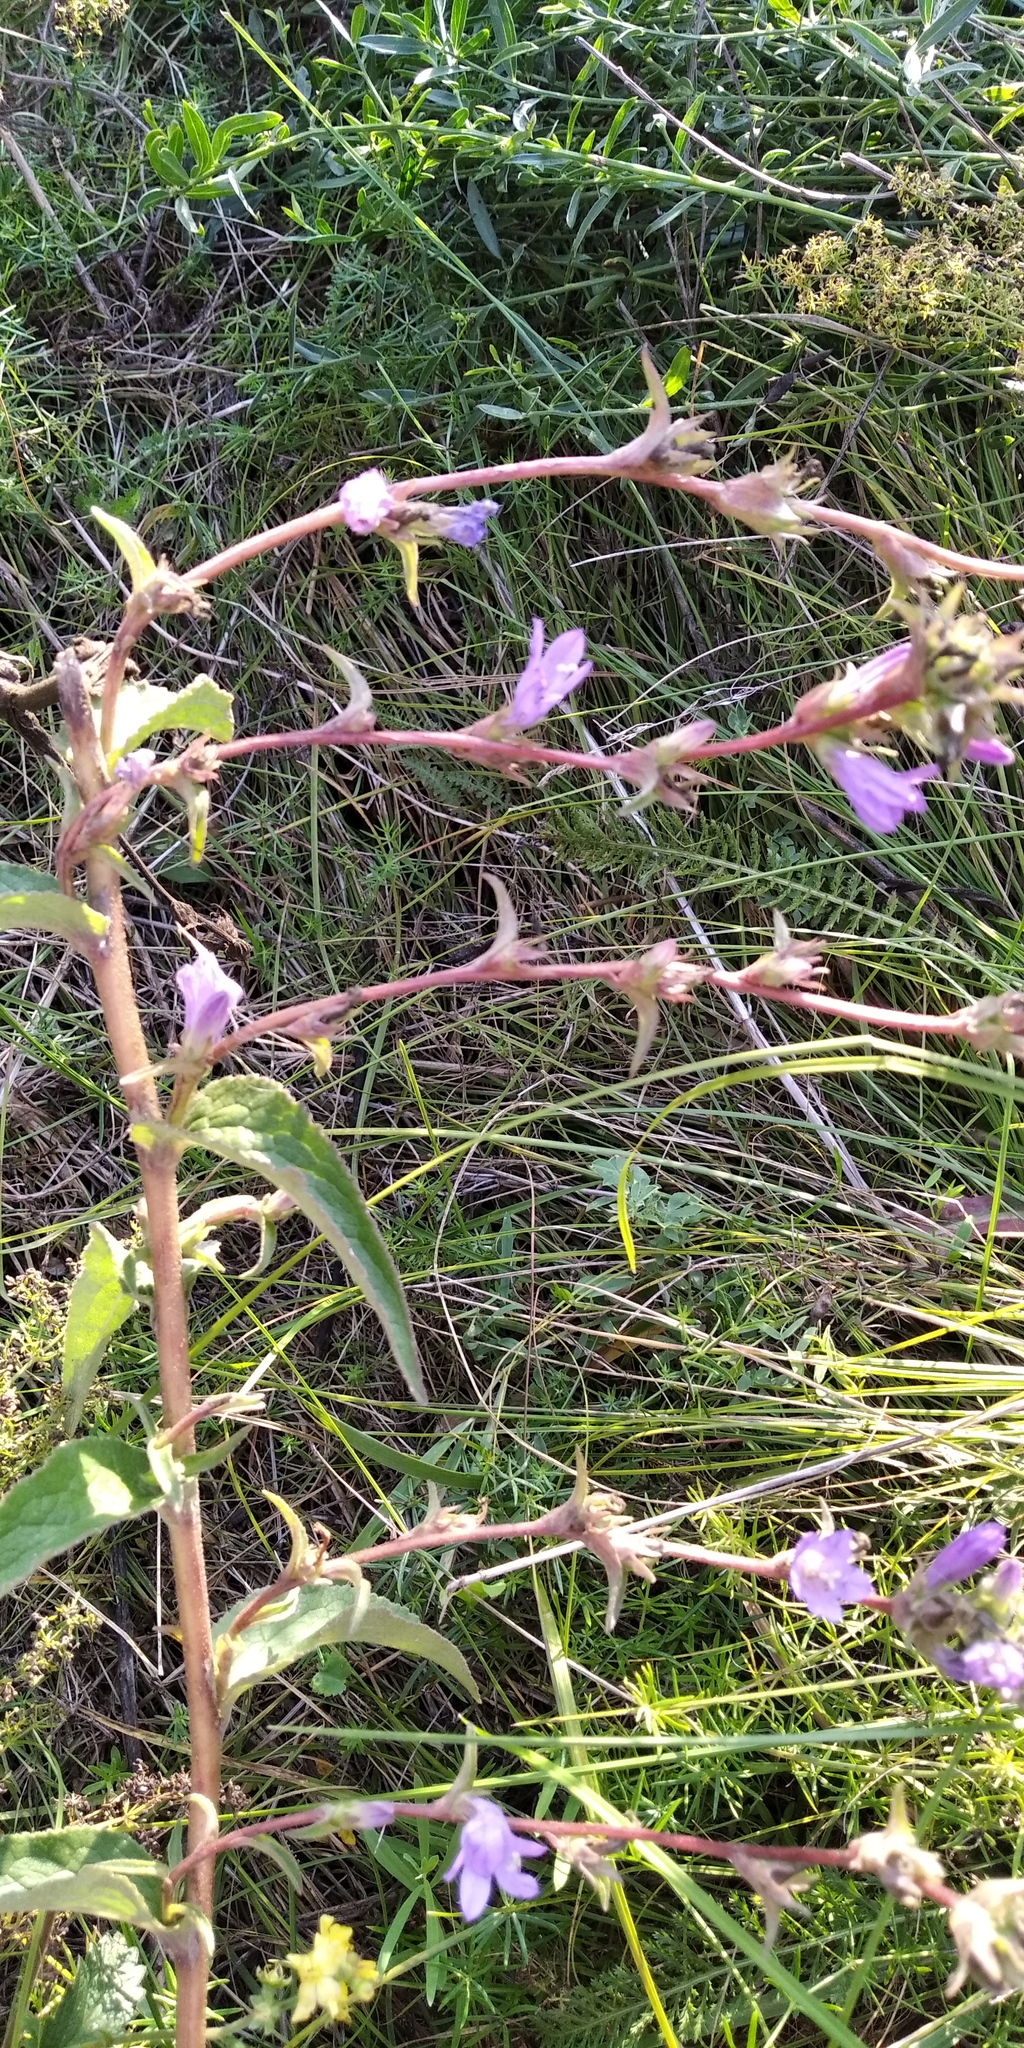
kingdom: Plantae
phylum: Tracheophyta
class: Magnoliopsida
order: Asterales
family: Campanulaceae
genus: Campanula
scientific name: Campanula glomerata
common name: Clustered bellflower
